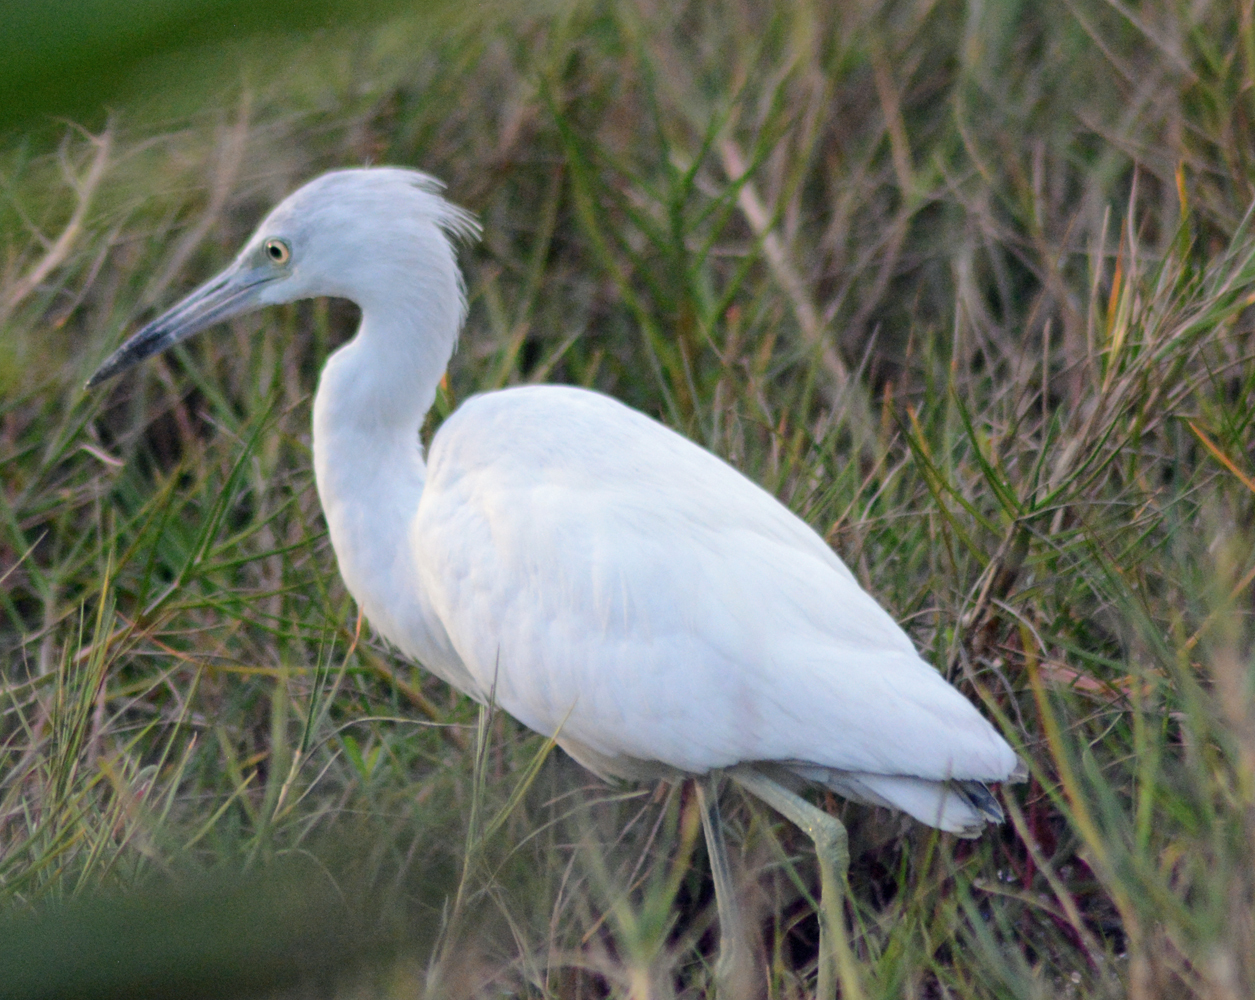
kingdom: Animalia
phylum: Chordata
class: Aves
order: Pelecaniformes
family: Ardeidae
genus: Egretta
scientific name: Egretta caerulea
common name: Little blue heron
